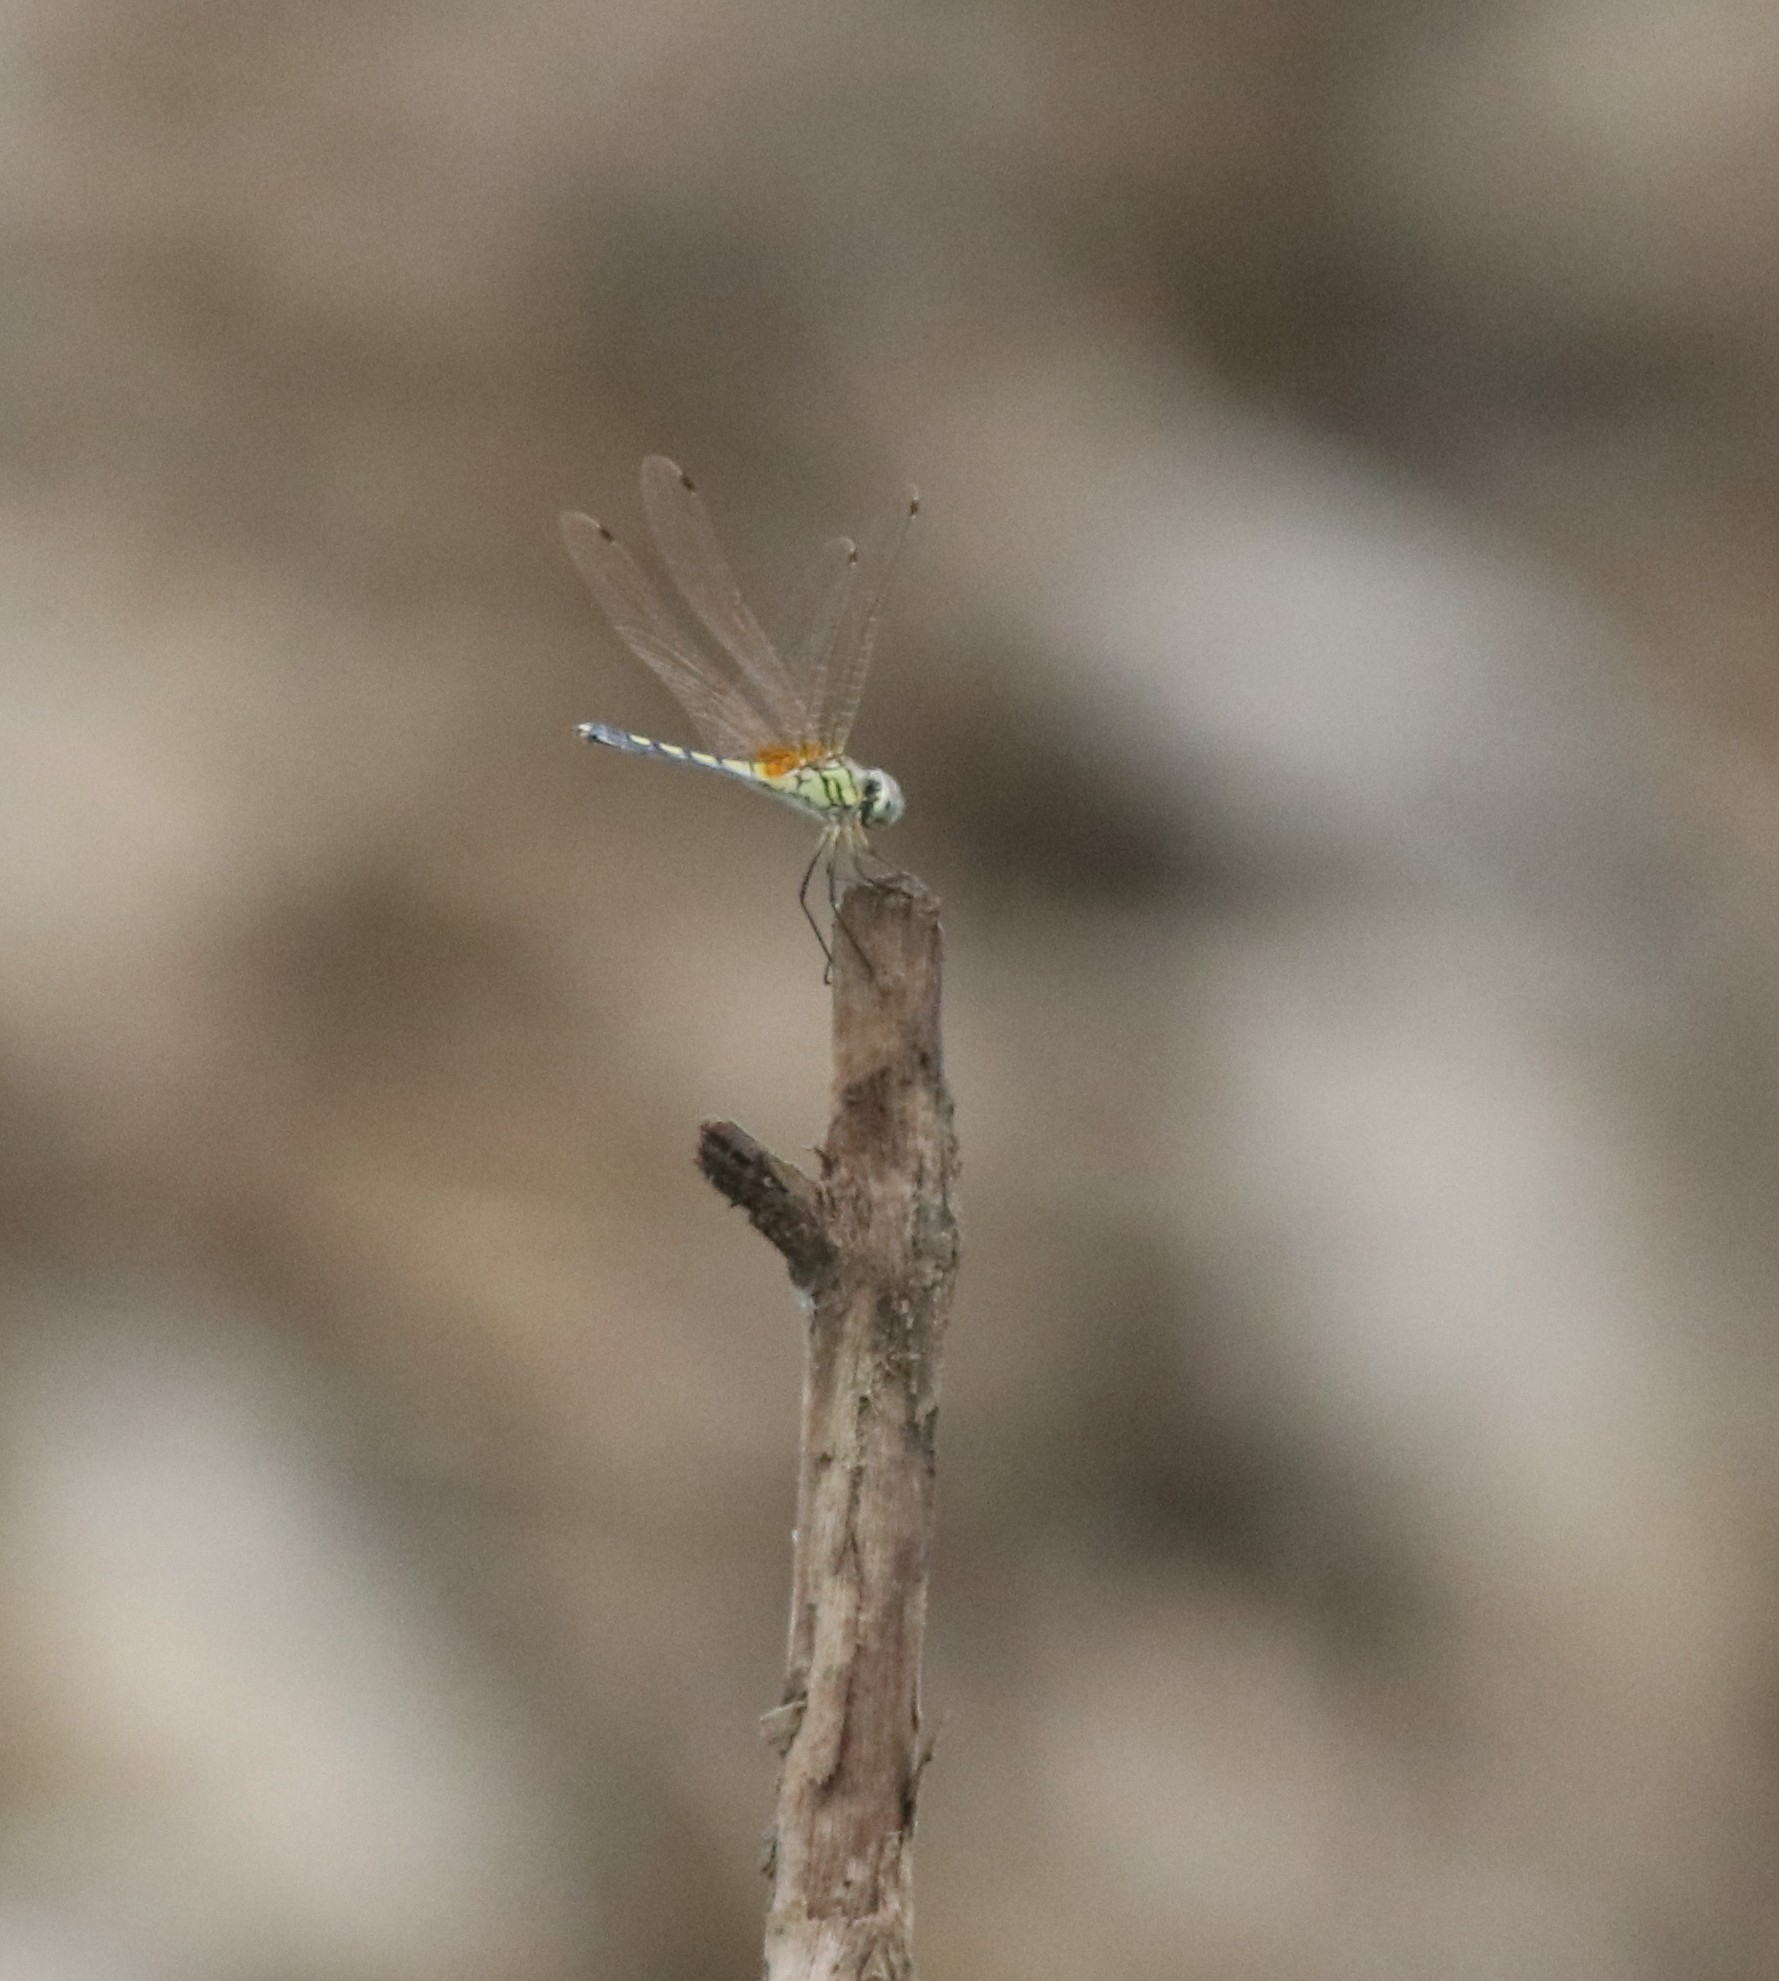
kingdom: Animalia
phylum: Arthropoda
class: Insecta
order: Odonata
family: Libellulidae
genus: Trithemis
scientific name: Trithemis pallidinervis
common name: Dancing dropwing
